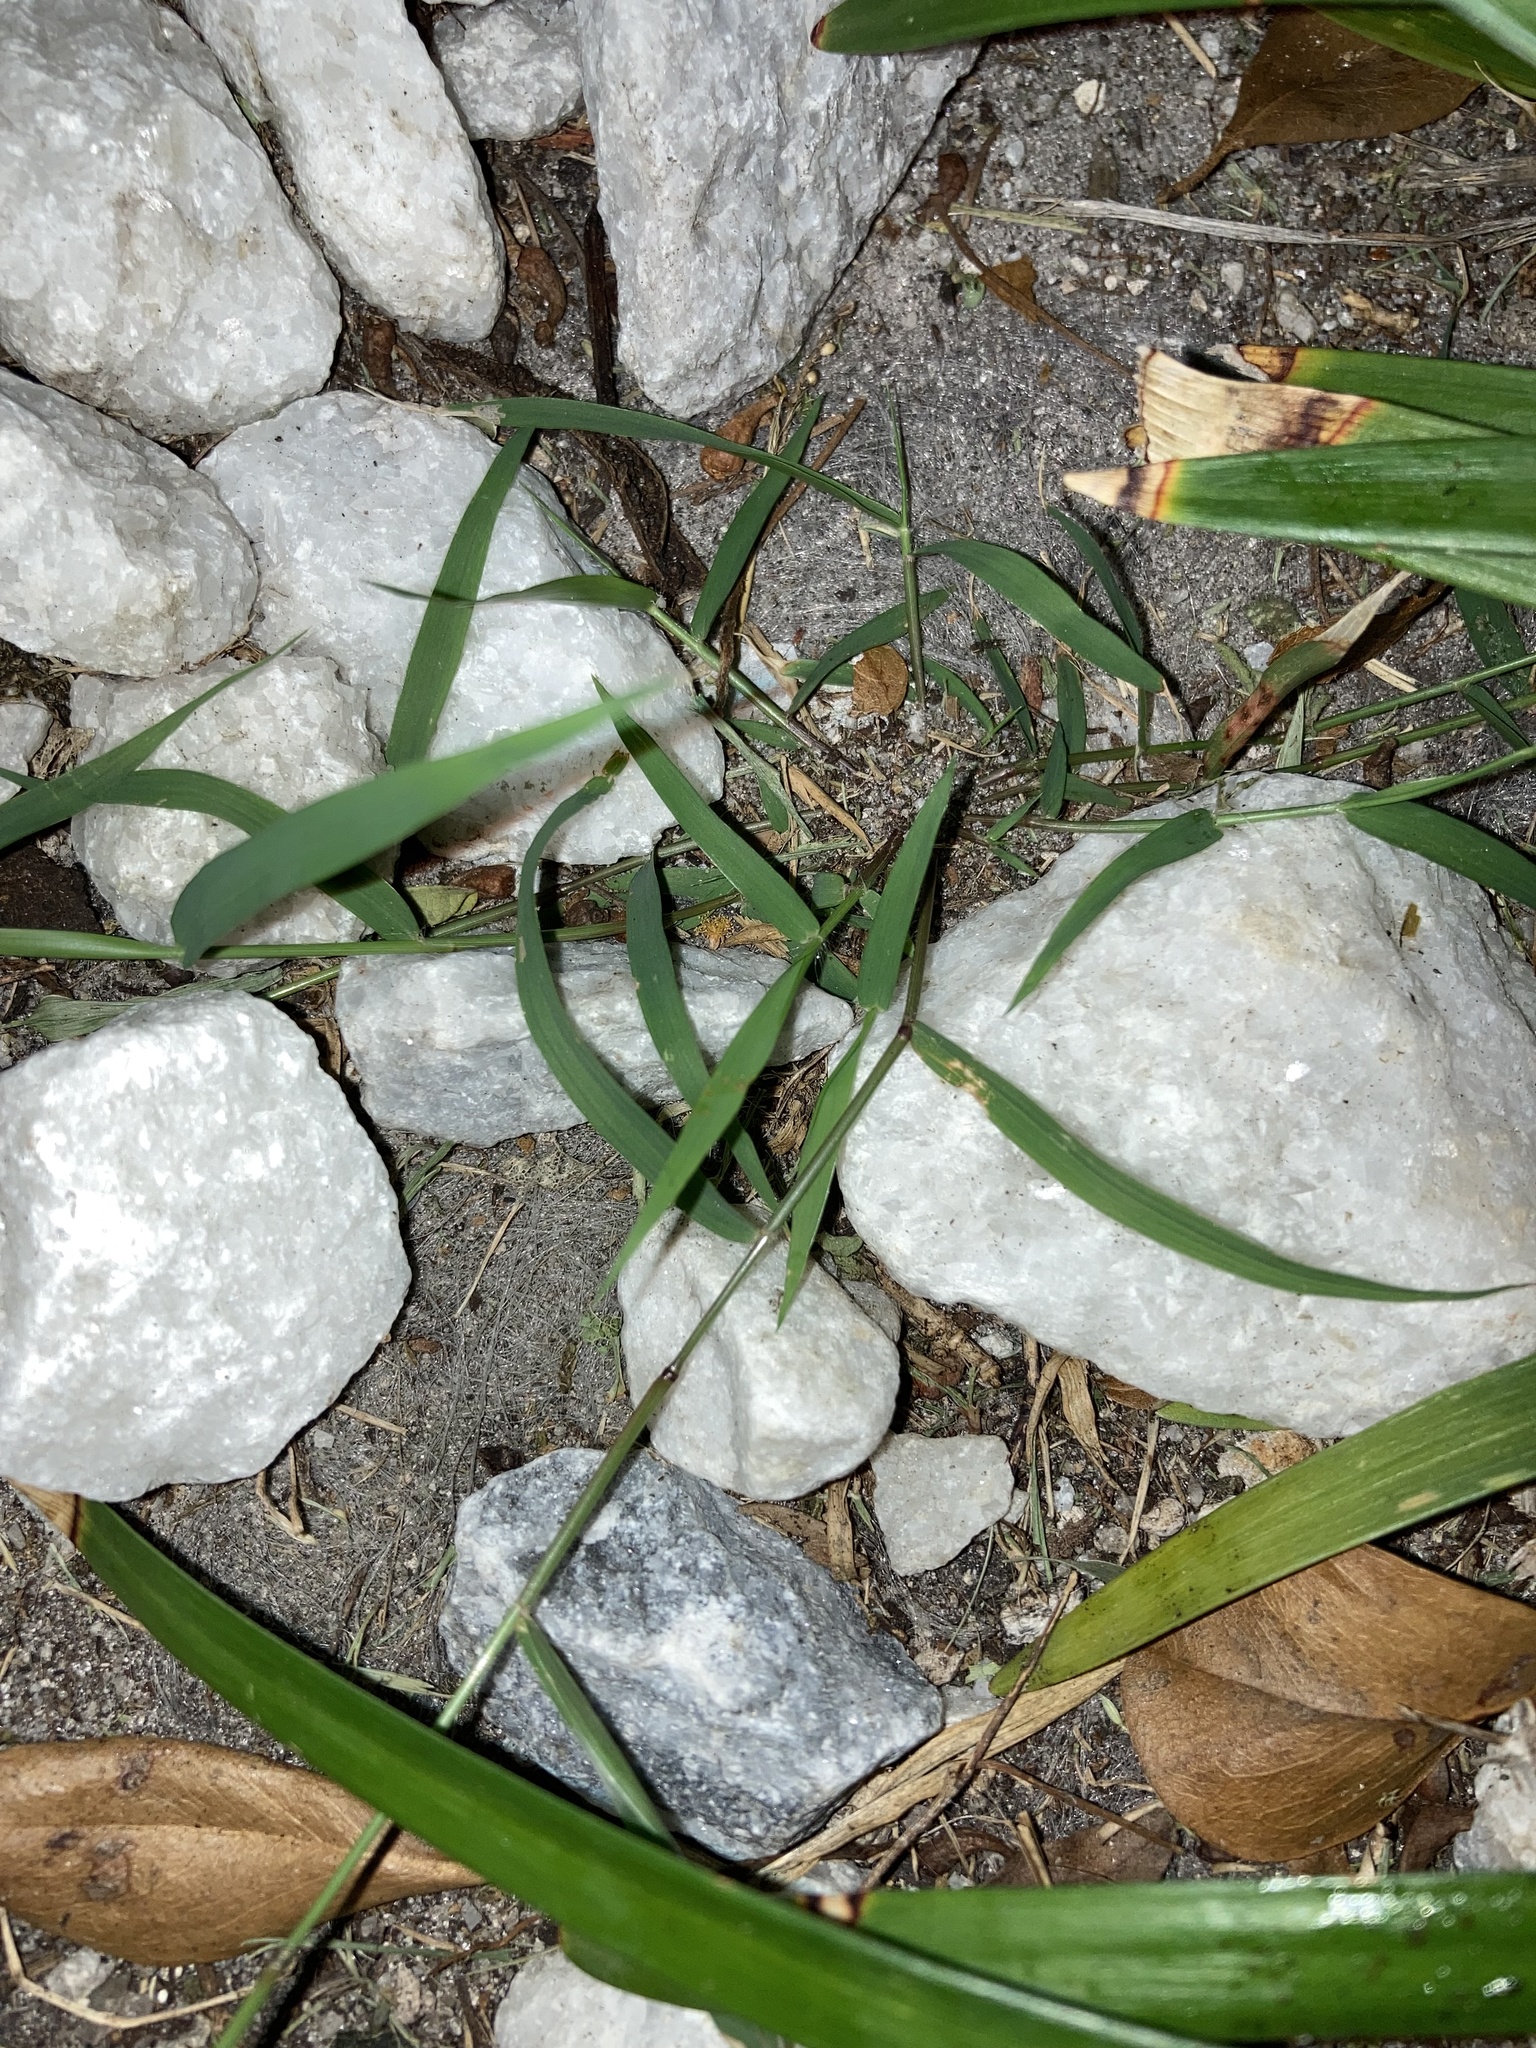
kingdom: Plantae
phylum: Tracheophyta
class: Liliopsida
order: Poales
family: Poaceae
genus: Eragrostis
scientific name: Eragrostis tenella
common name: Japanese lovegrass
